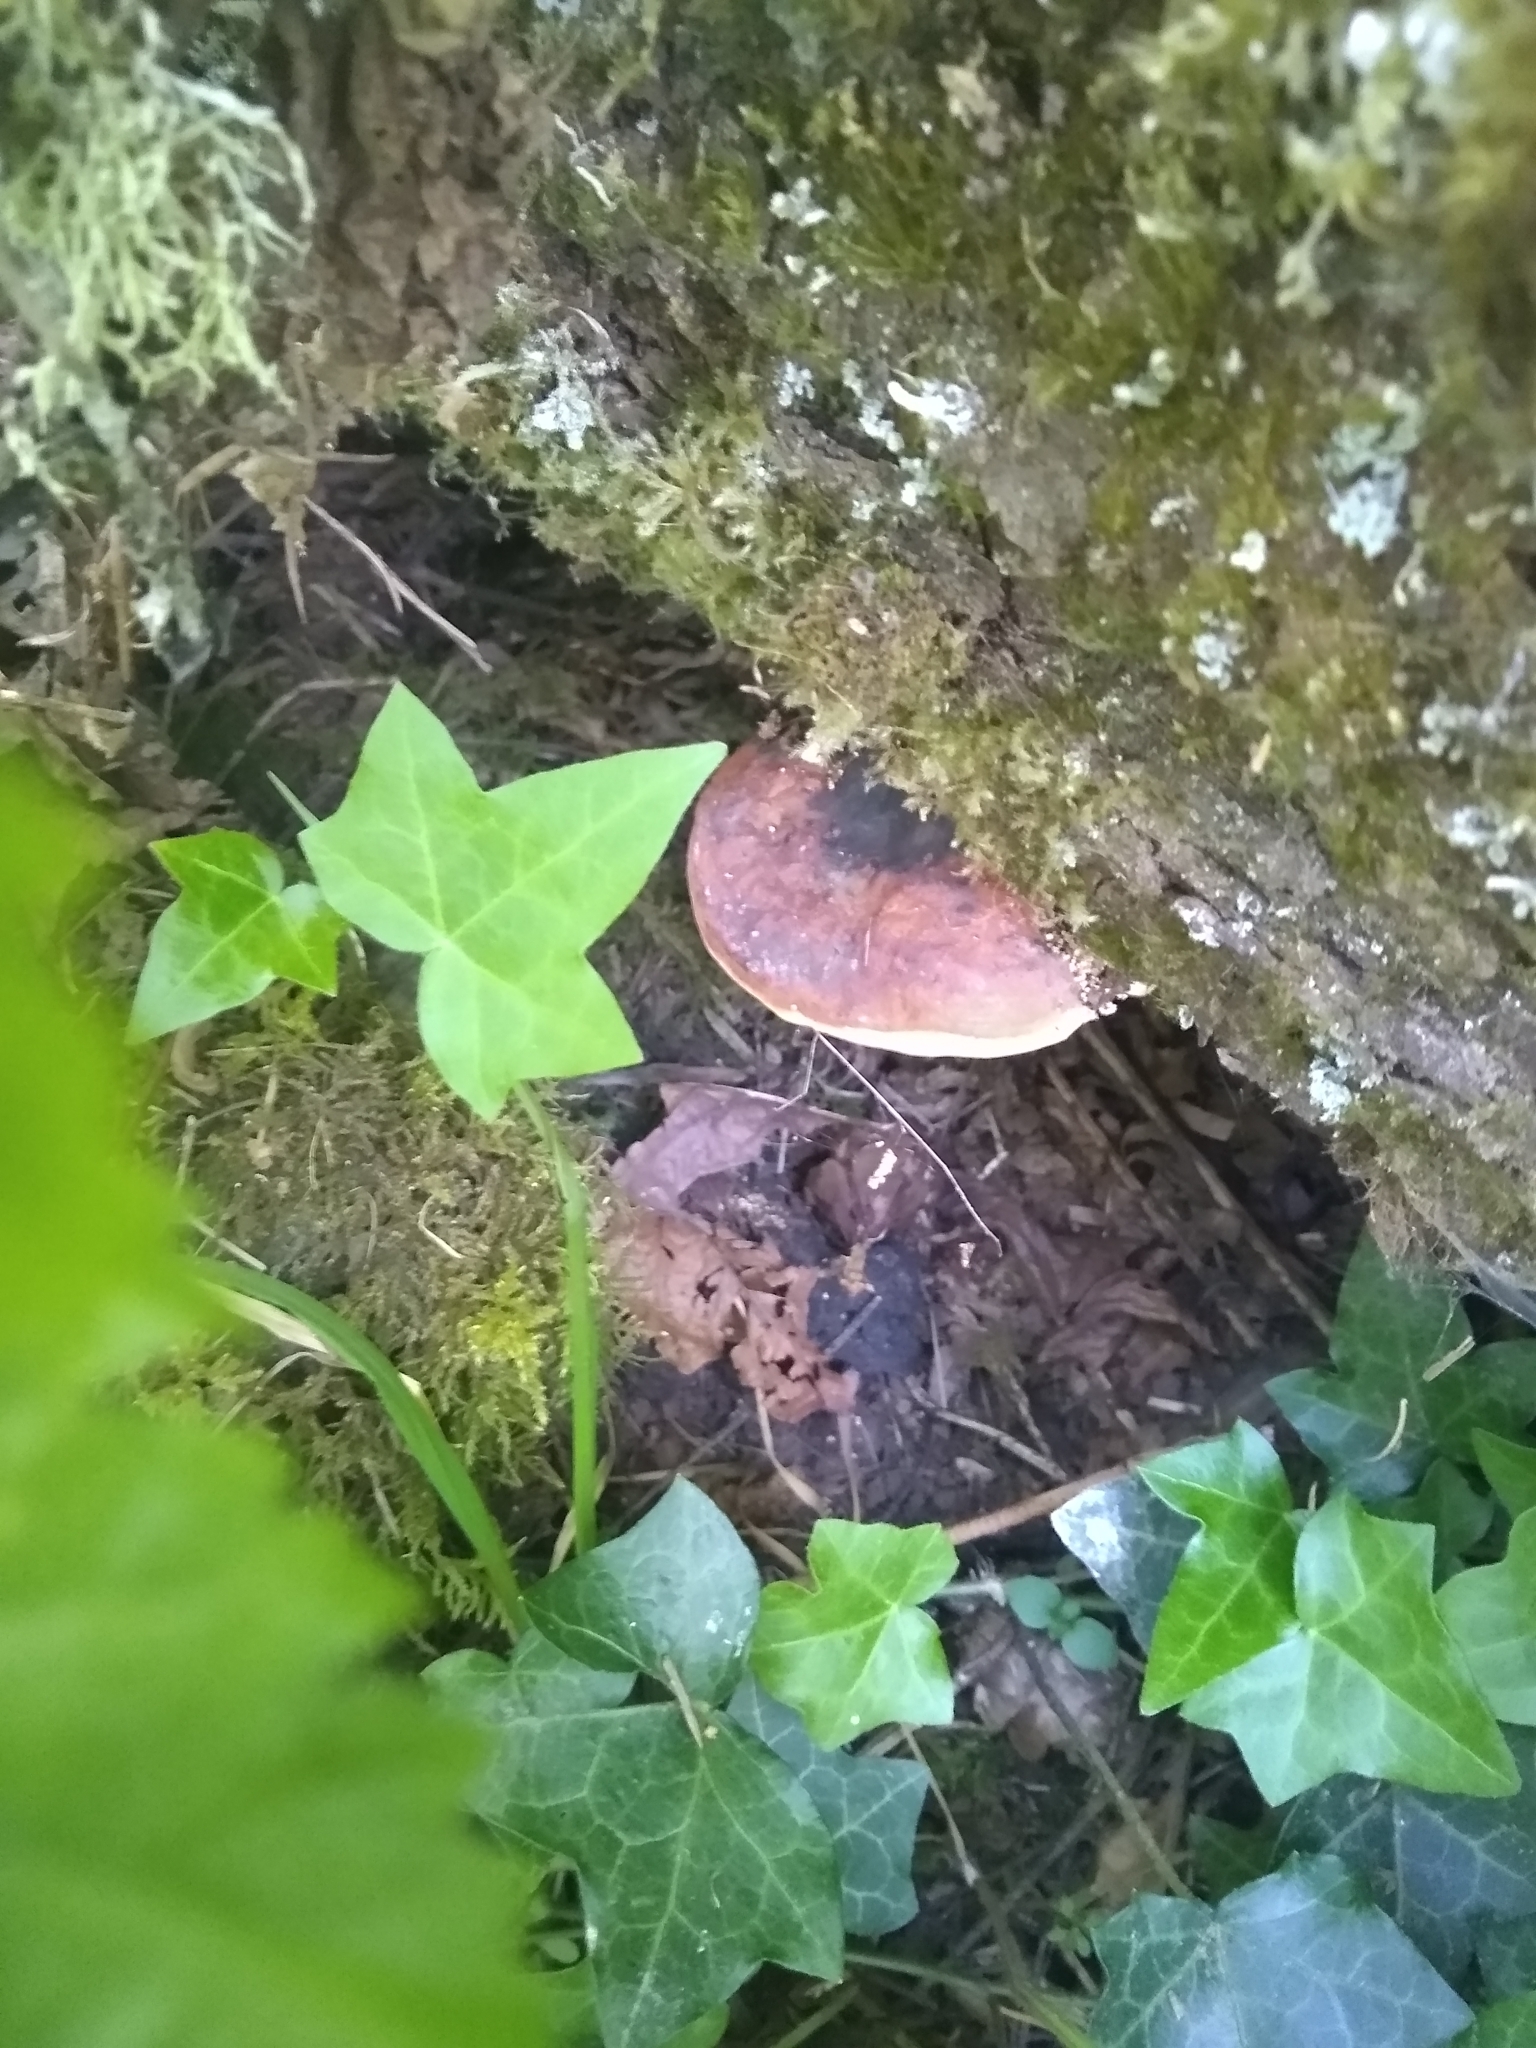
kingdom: Fungi
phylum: Basidiomycota
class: Agaricomycetes
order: Polyporales
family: Fomitopsidaceae
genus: Fomitopsis
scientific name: Fomitopsis mounceae
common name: Northern red belt
